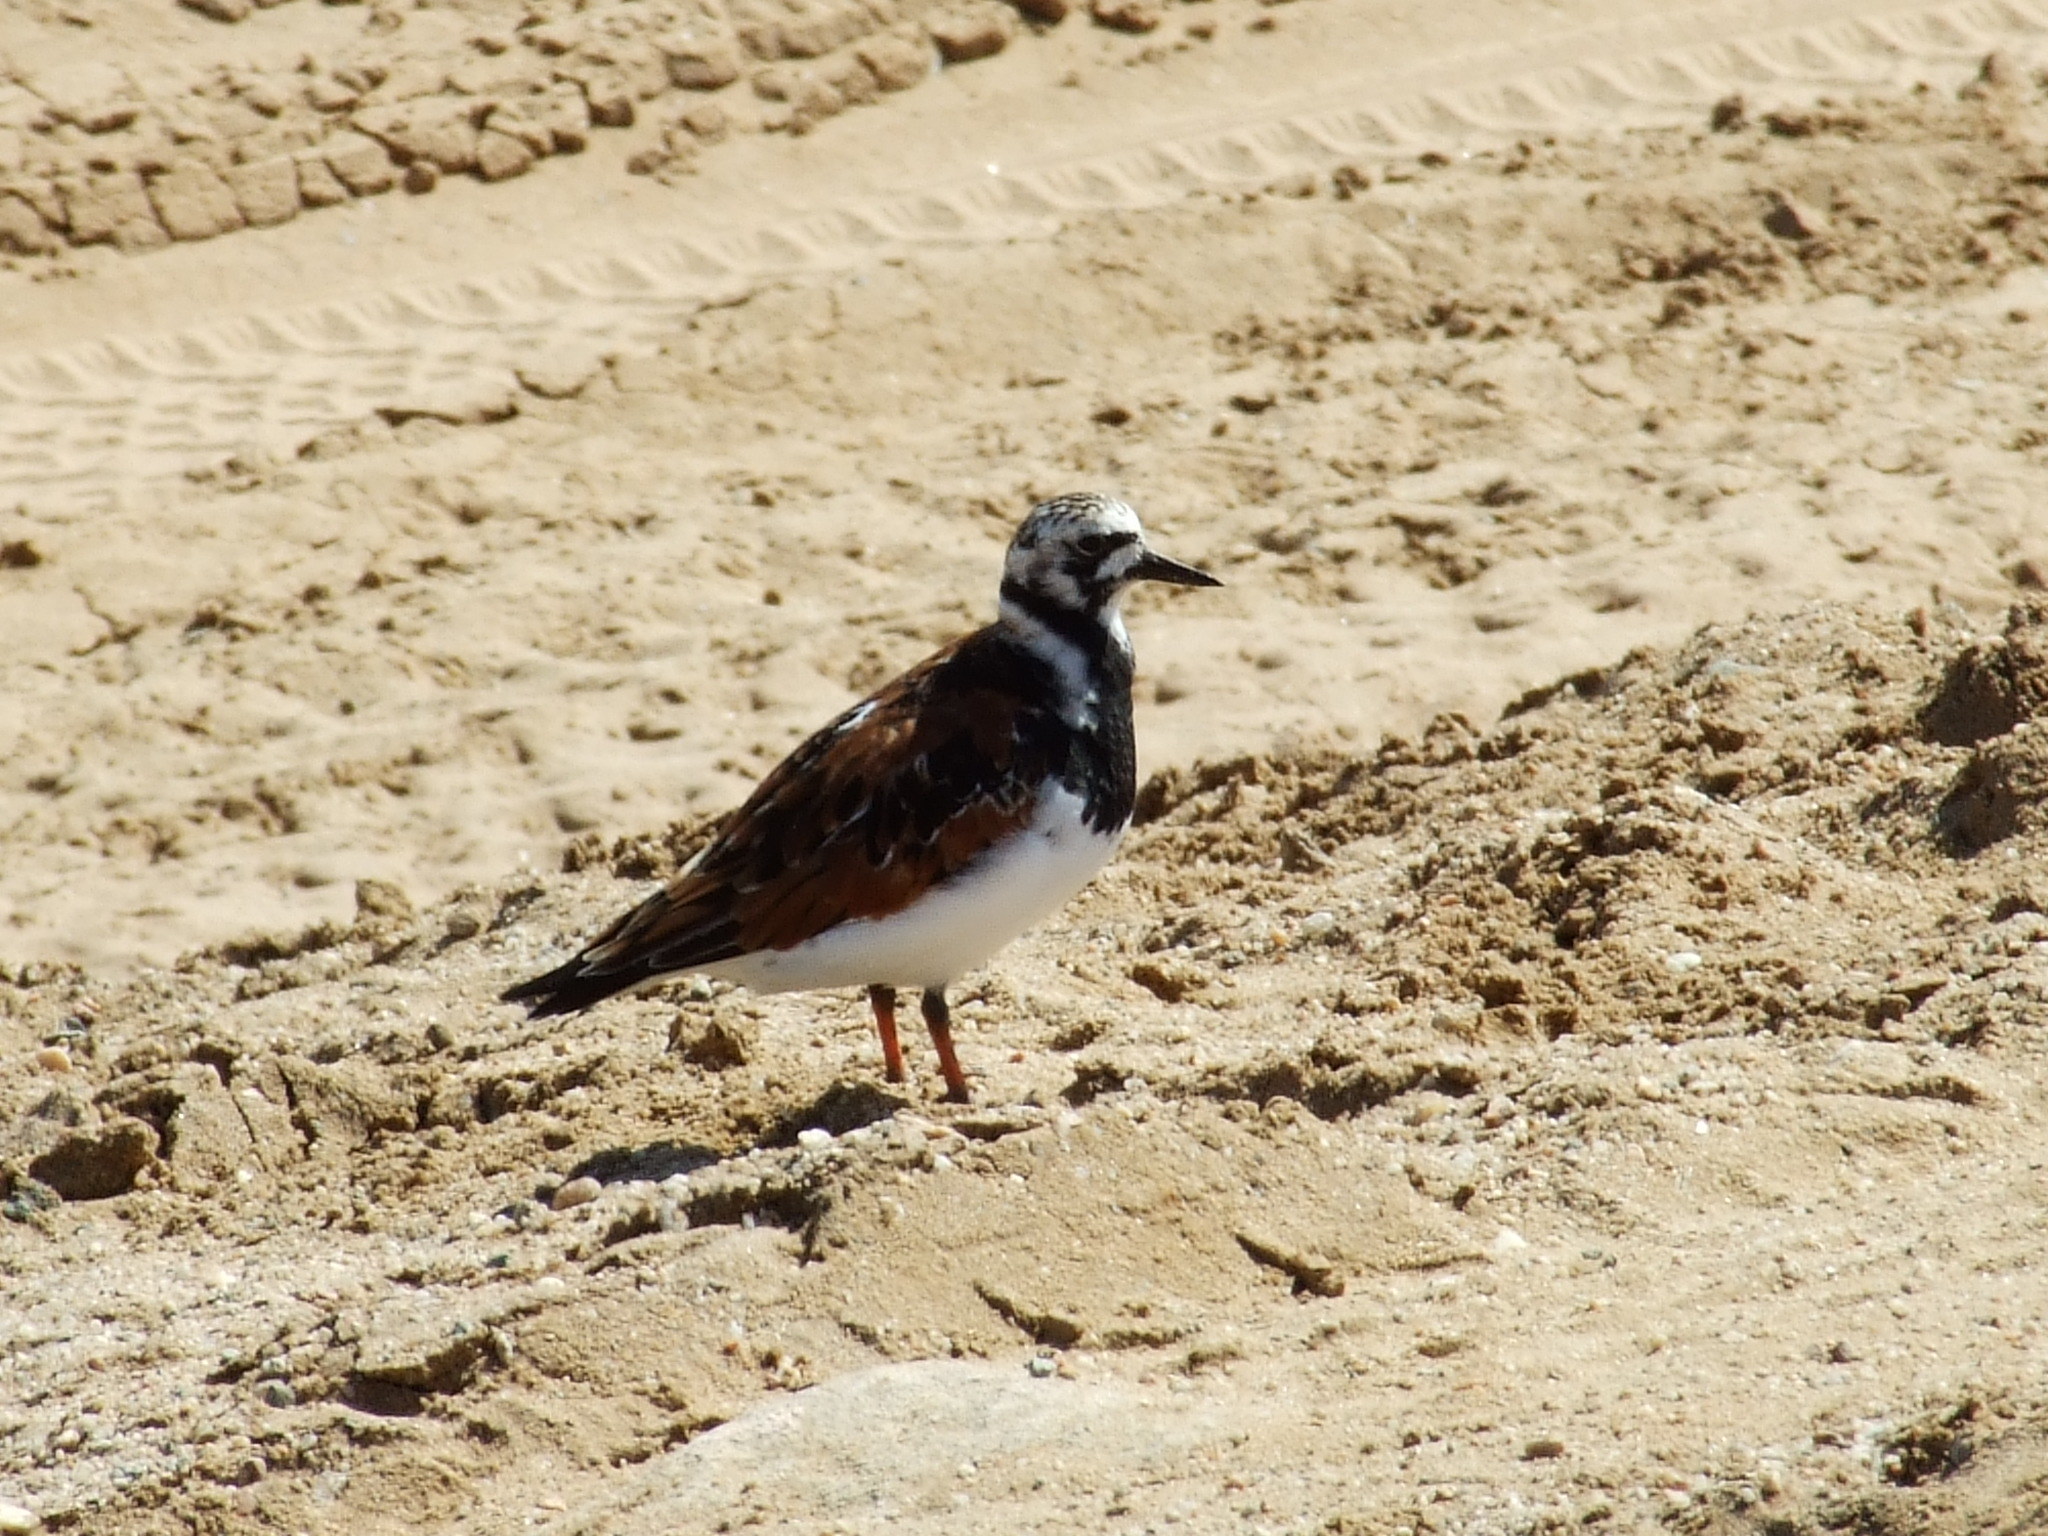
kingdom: Animalia
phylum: Chordata
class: Aves
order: Charadriiformes
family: Scolopacidae
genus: Arenaria
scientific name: Arenaria interpres
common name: Ruddy turnstone
